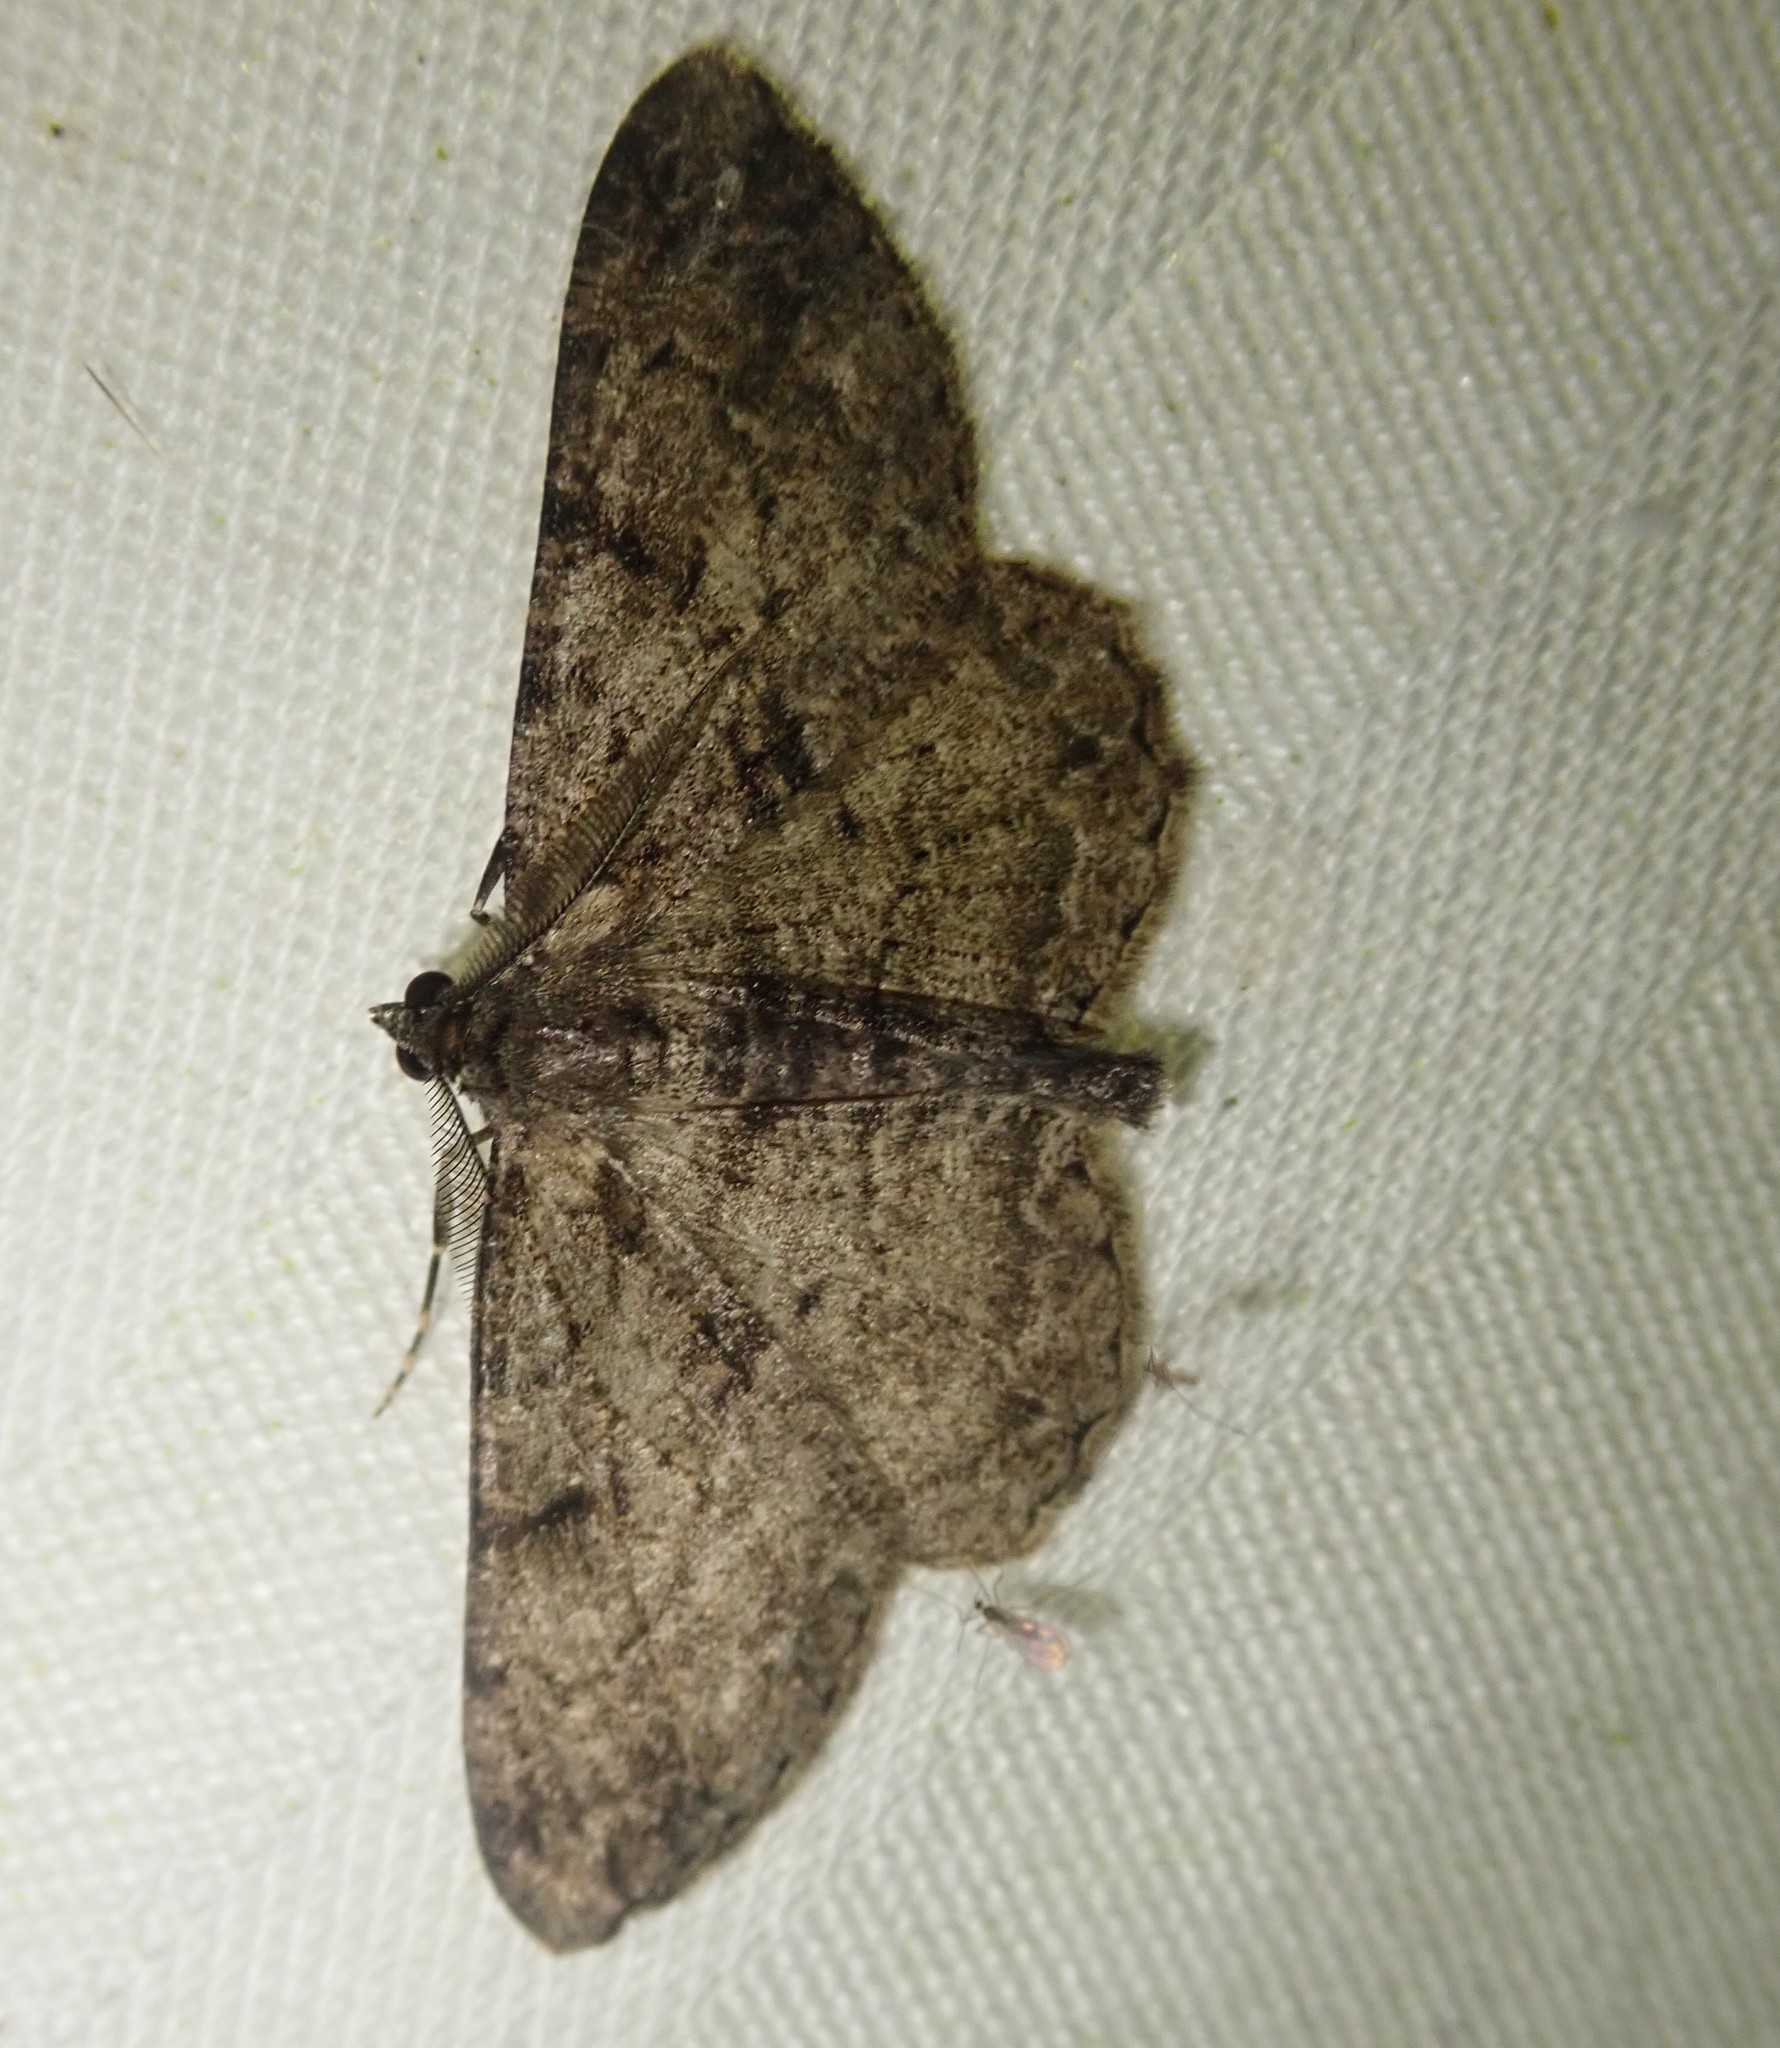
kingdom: Animalia
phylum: Arthropoda
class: Insecta
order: Lepidoptera
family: Geometridae
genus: Peribatodes
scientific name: Peribatodes rhomboidaria
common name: Willow beauty
